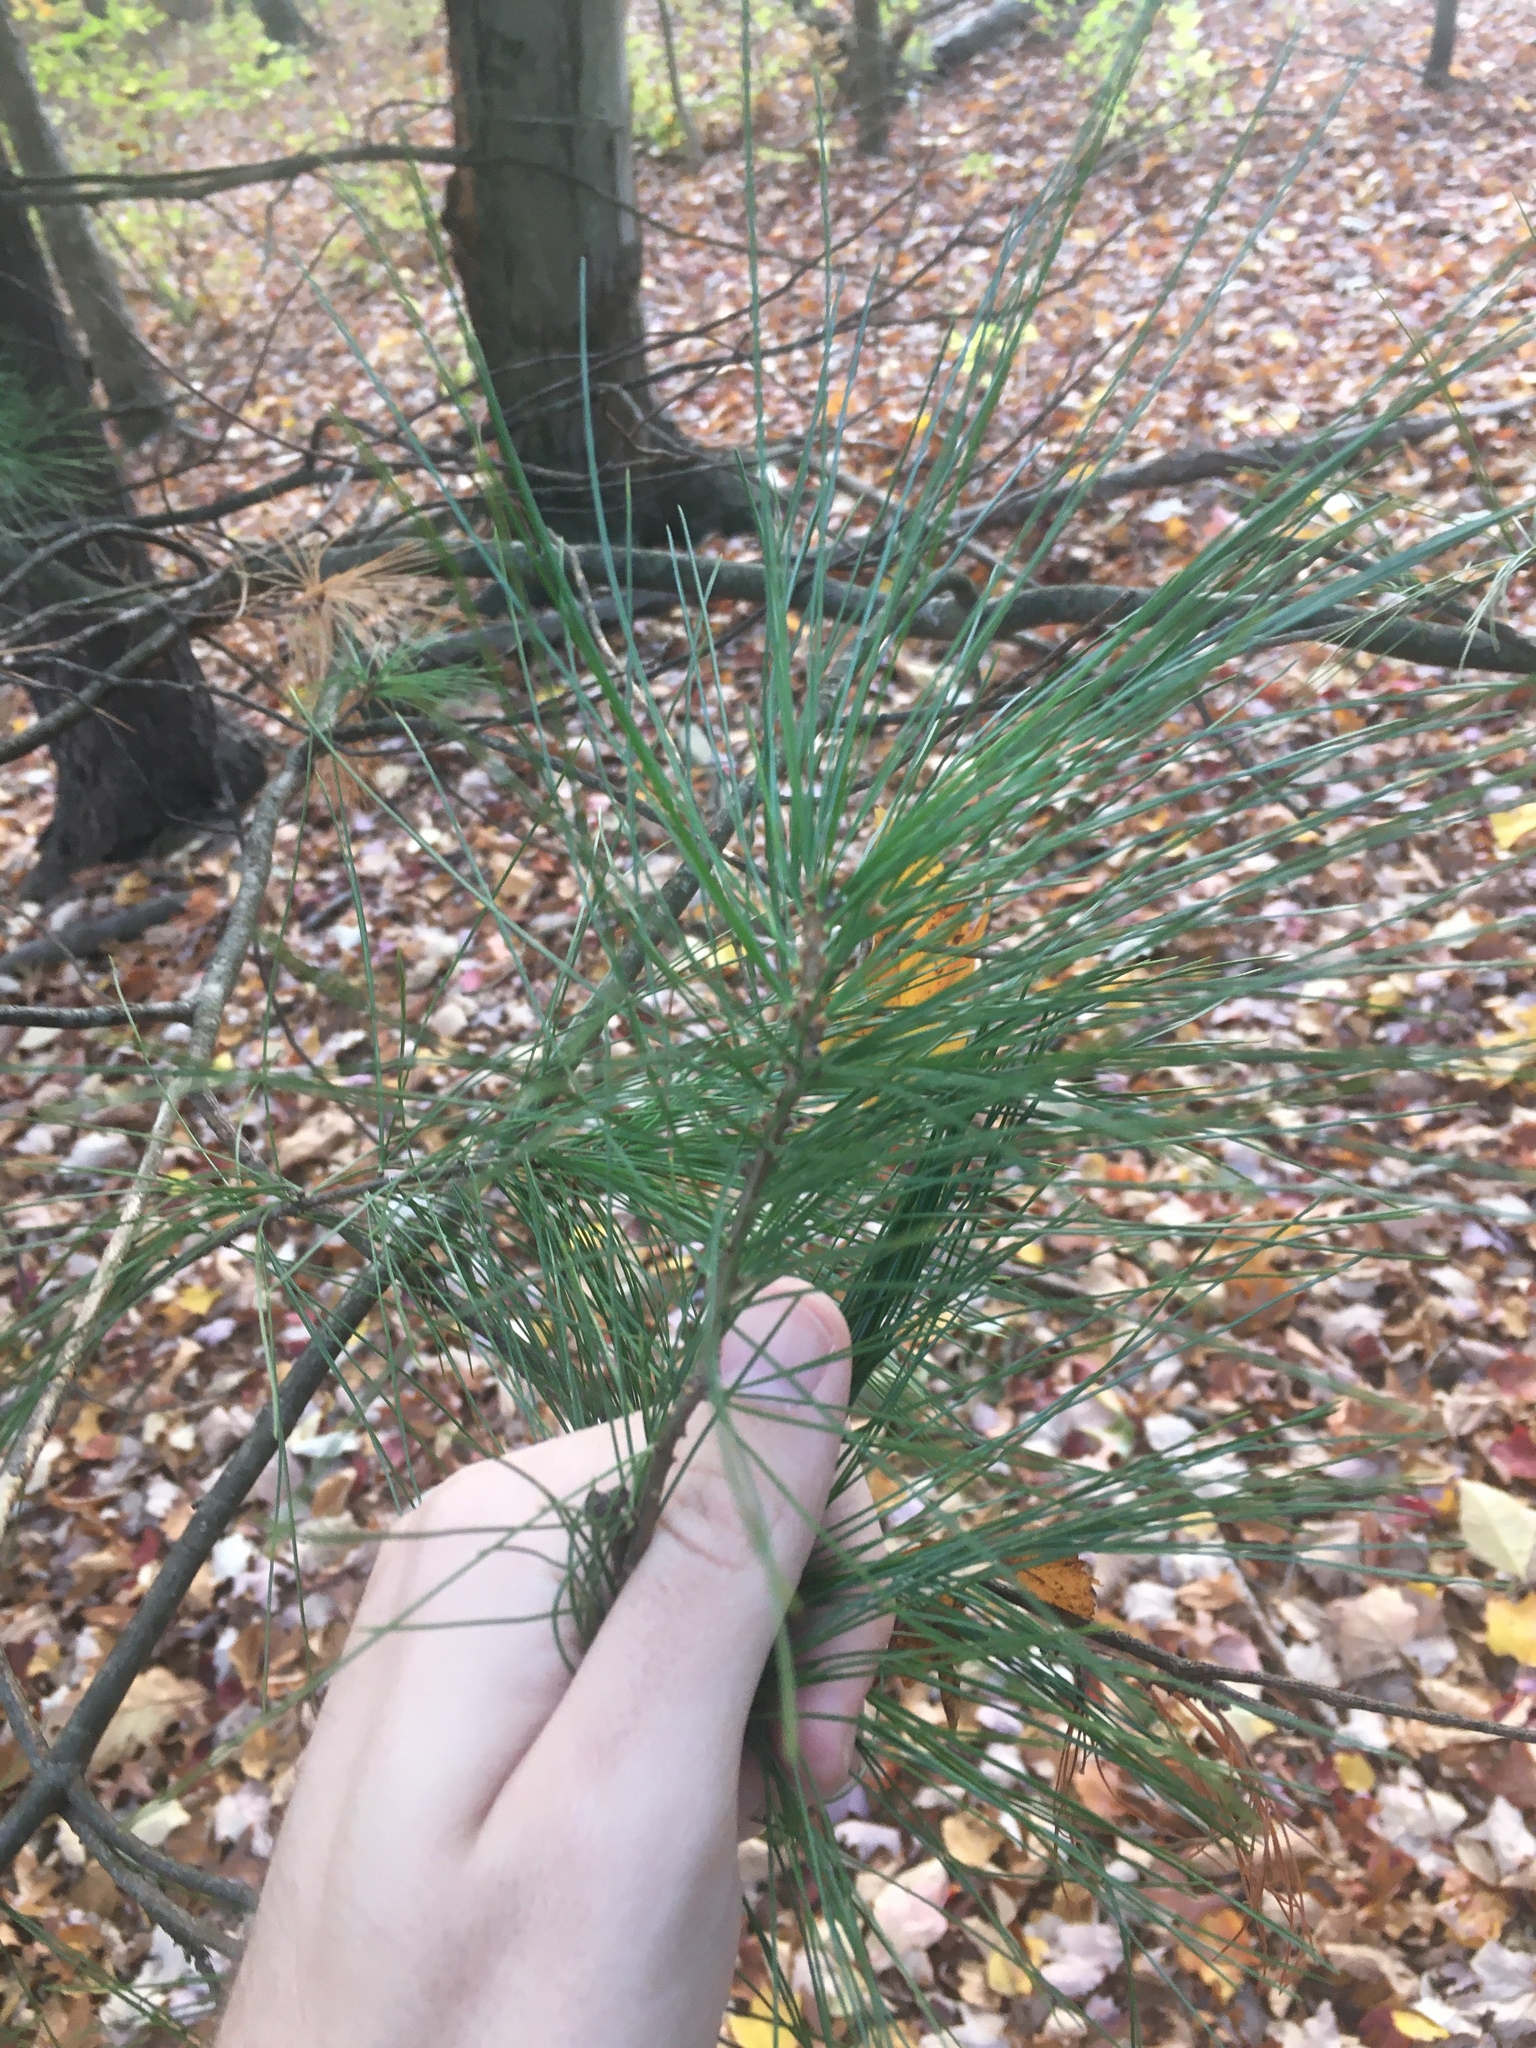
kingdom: Plantae
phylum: Tracheophyta
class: Pinopsida
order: Pinales
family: Pinaceae
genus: Pinus
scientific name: Pinus strobus
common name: Weymouth pine
